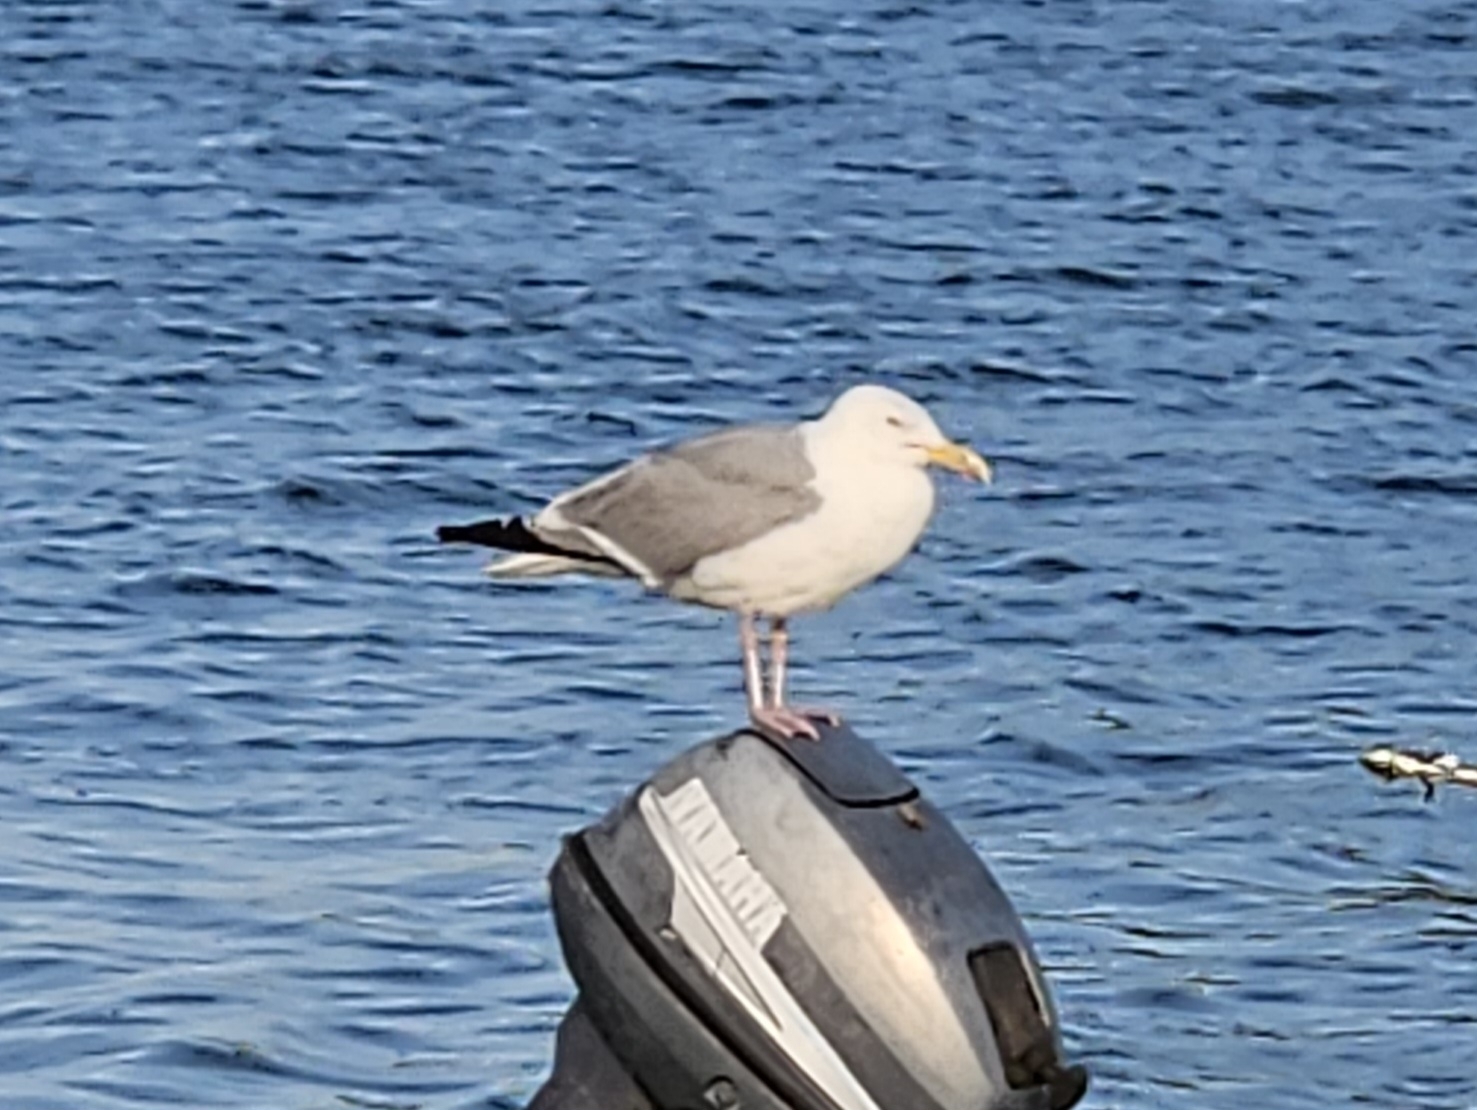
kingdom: Animalia
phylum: Chordata
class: Aves
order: Charadriiformes
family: Laridae
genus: Larus
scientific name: Larus argentatus
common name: Herring gull
